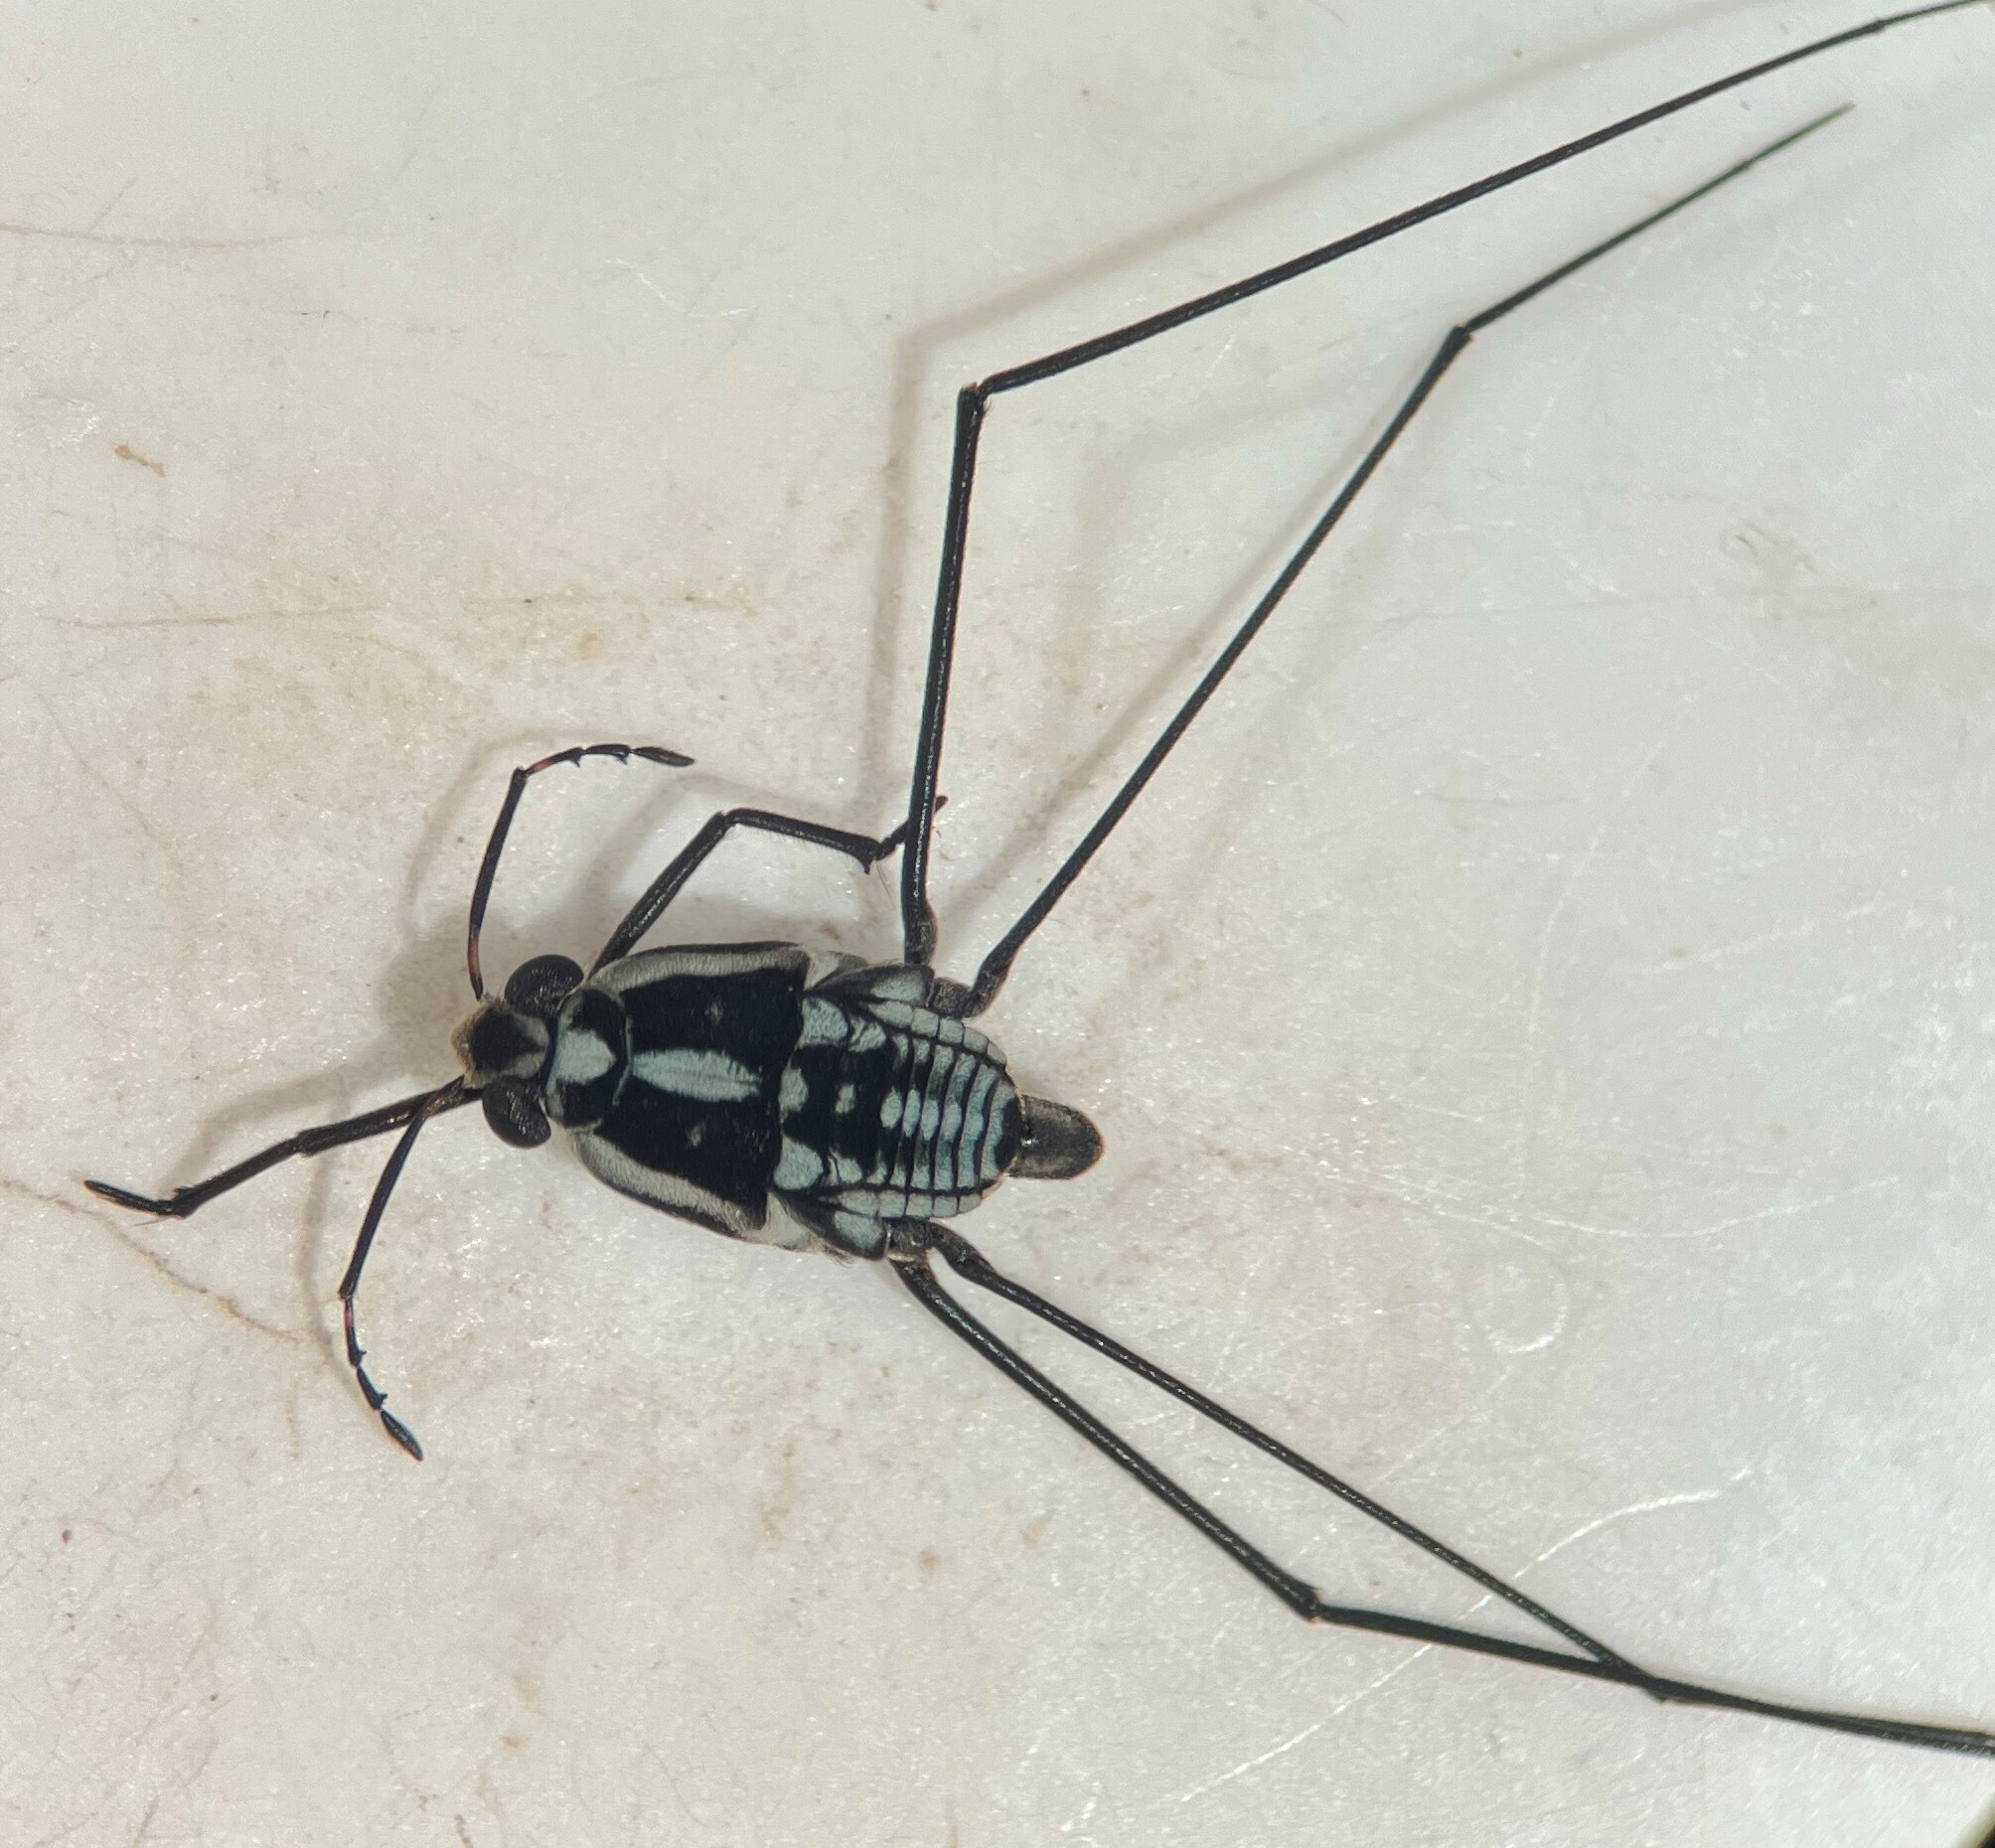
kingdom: Animalia
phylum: Arthropoda
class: Insecta
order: Hemiptera
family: Gerridae
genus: Metrobates
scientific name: Metrobates trux
